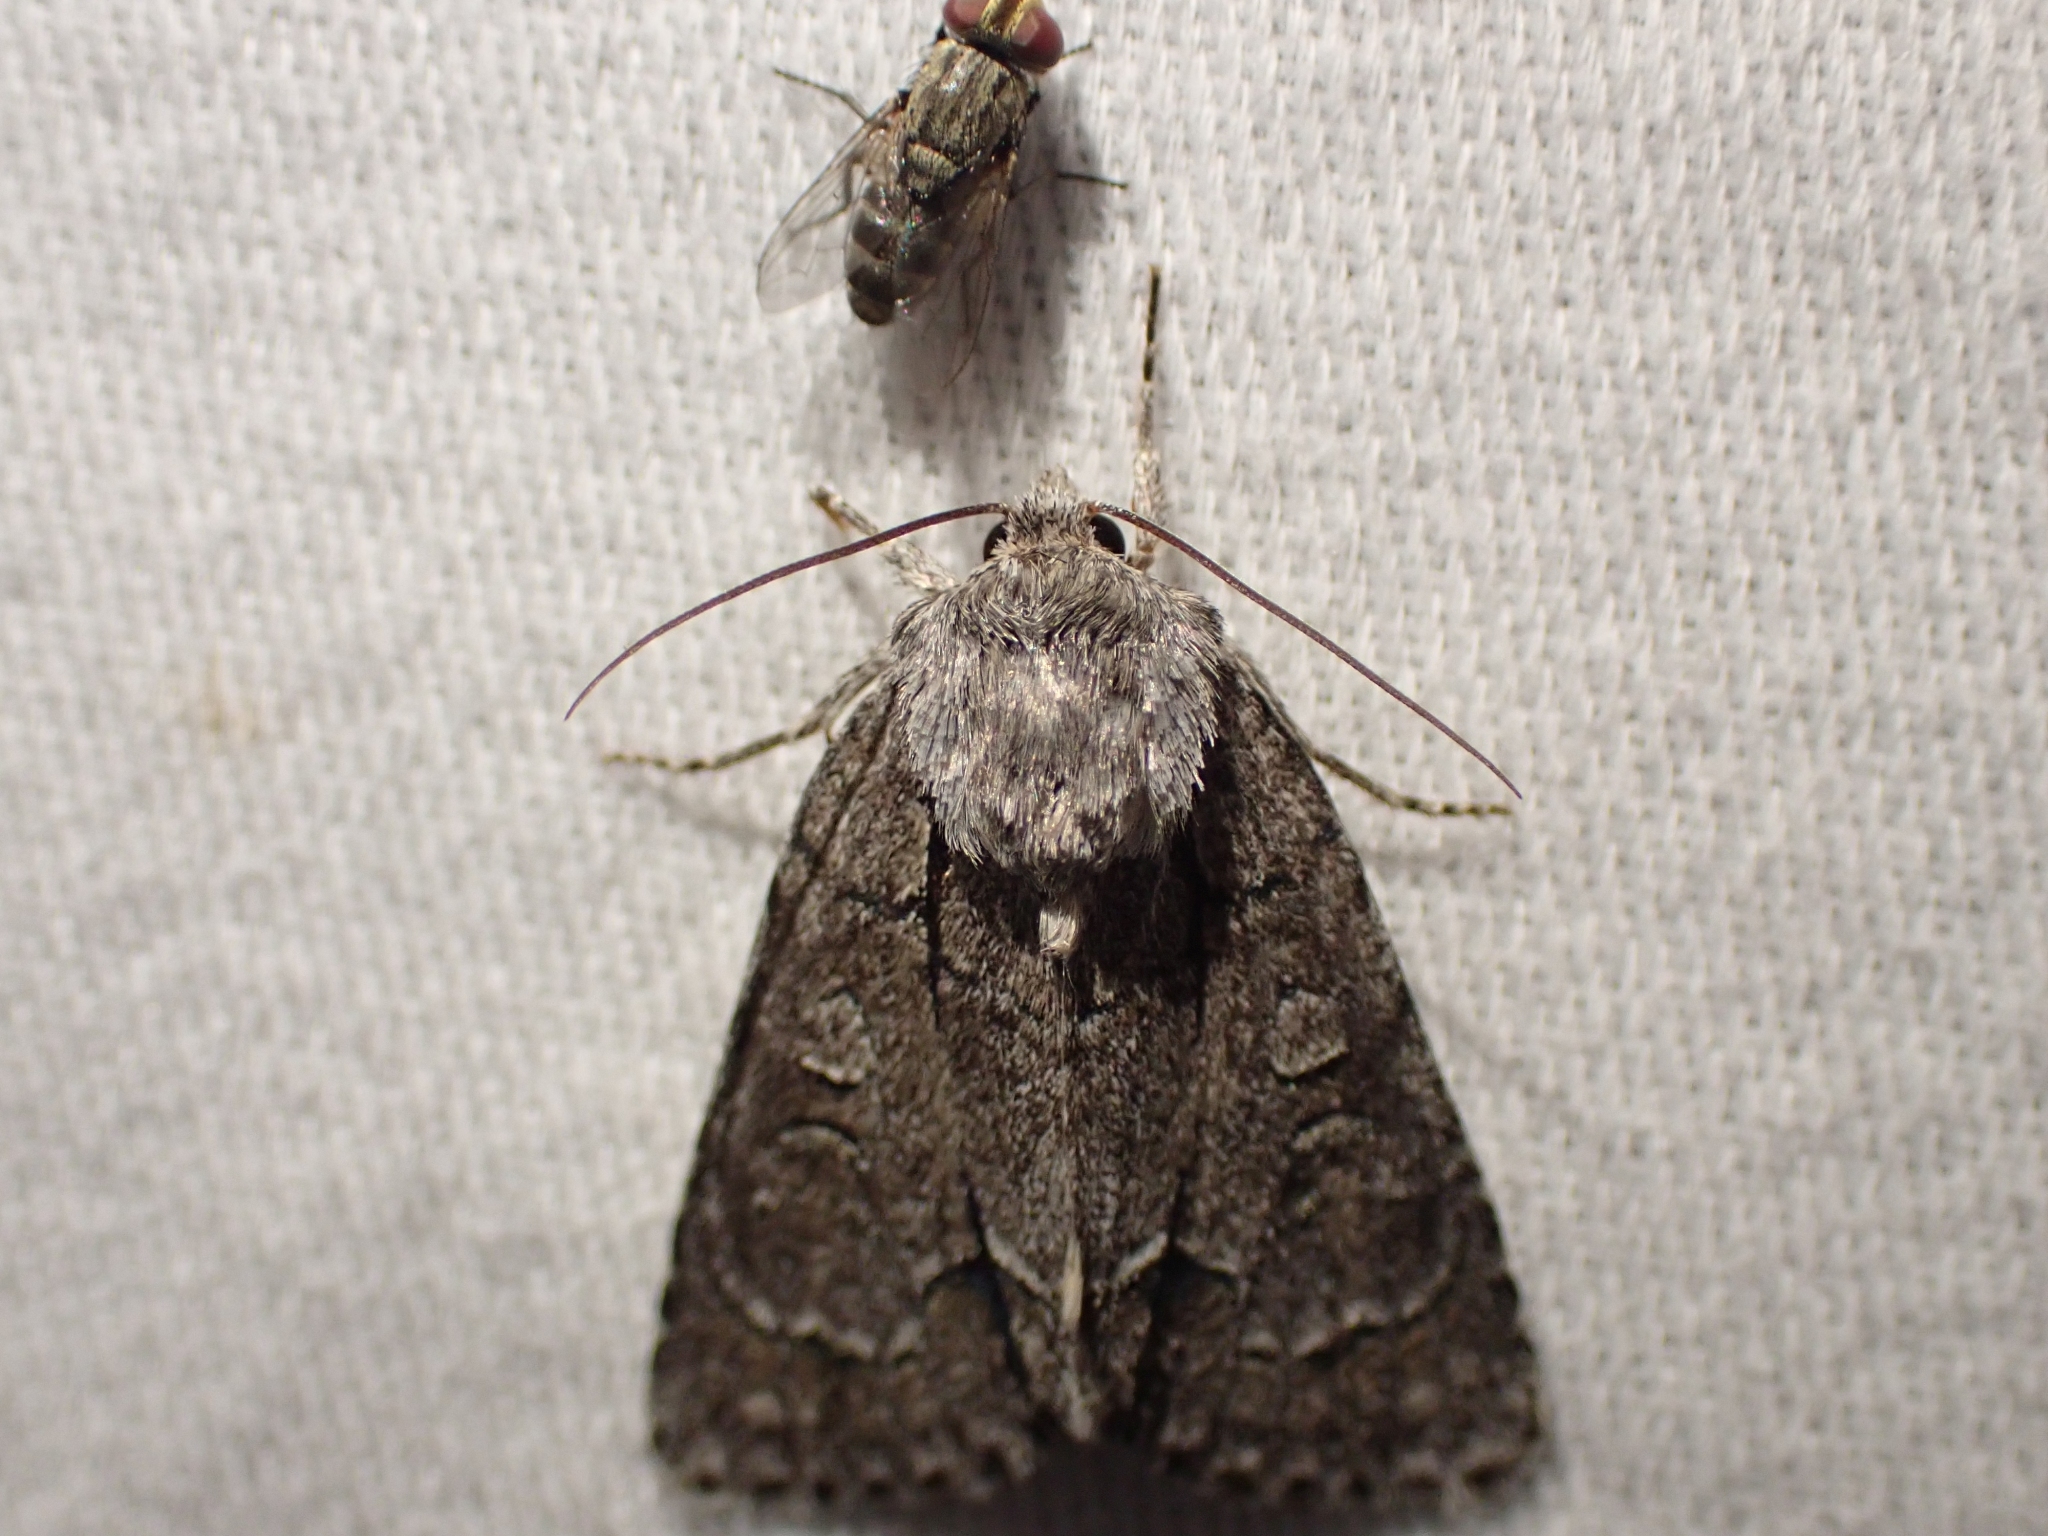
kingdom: Animalia
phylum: Arthropoda
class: Insecta
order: Lepidoptera
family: Noctuidae
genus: Acronicta
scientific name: Acronicta radcliffei
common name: Radcliffe's dagger
